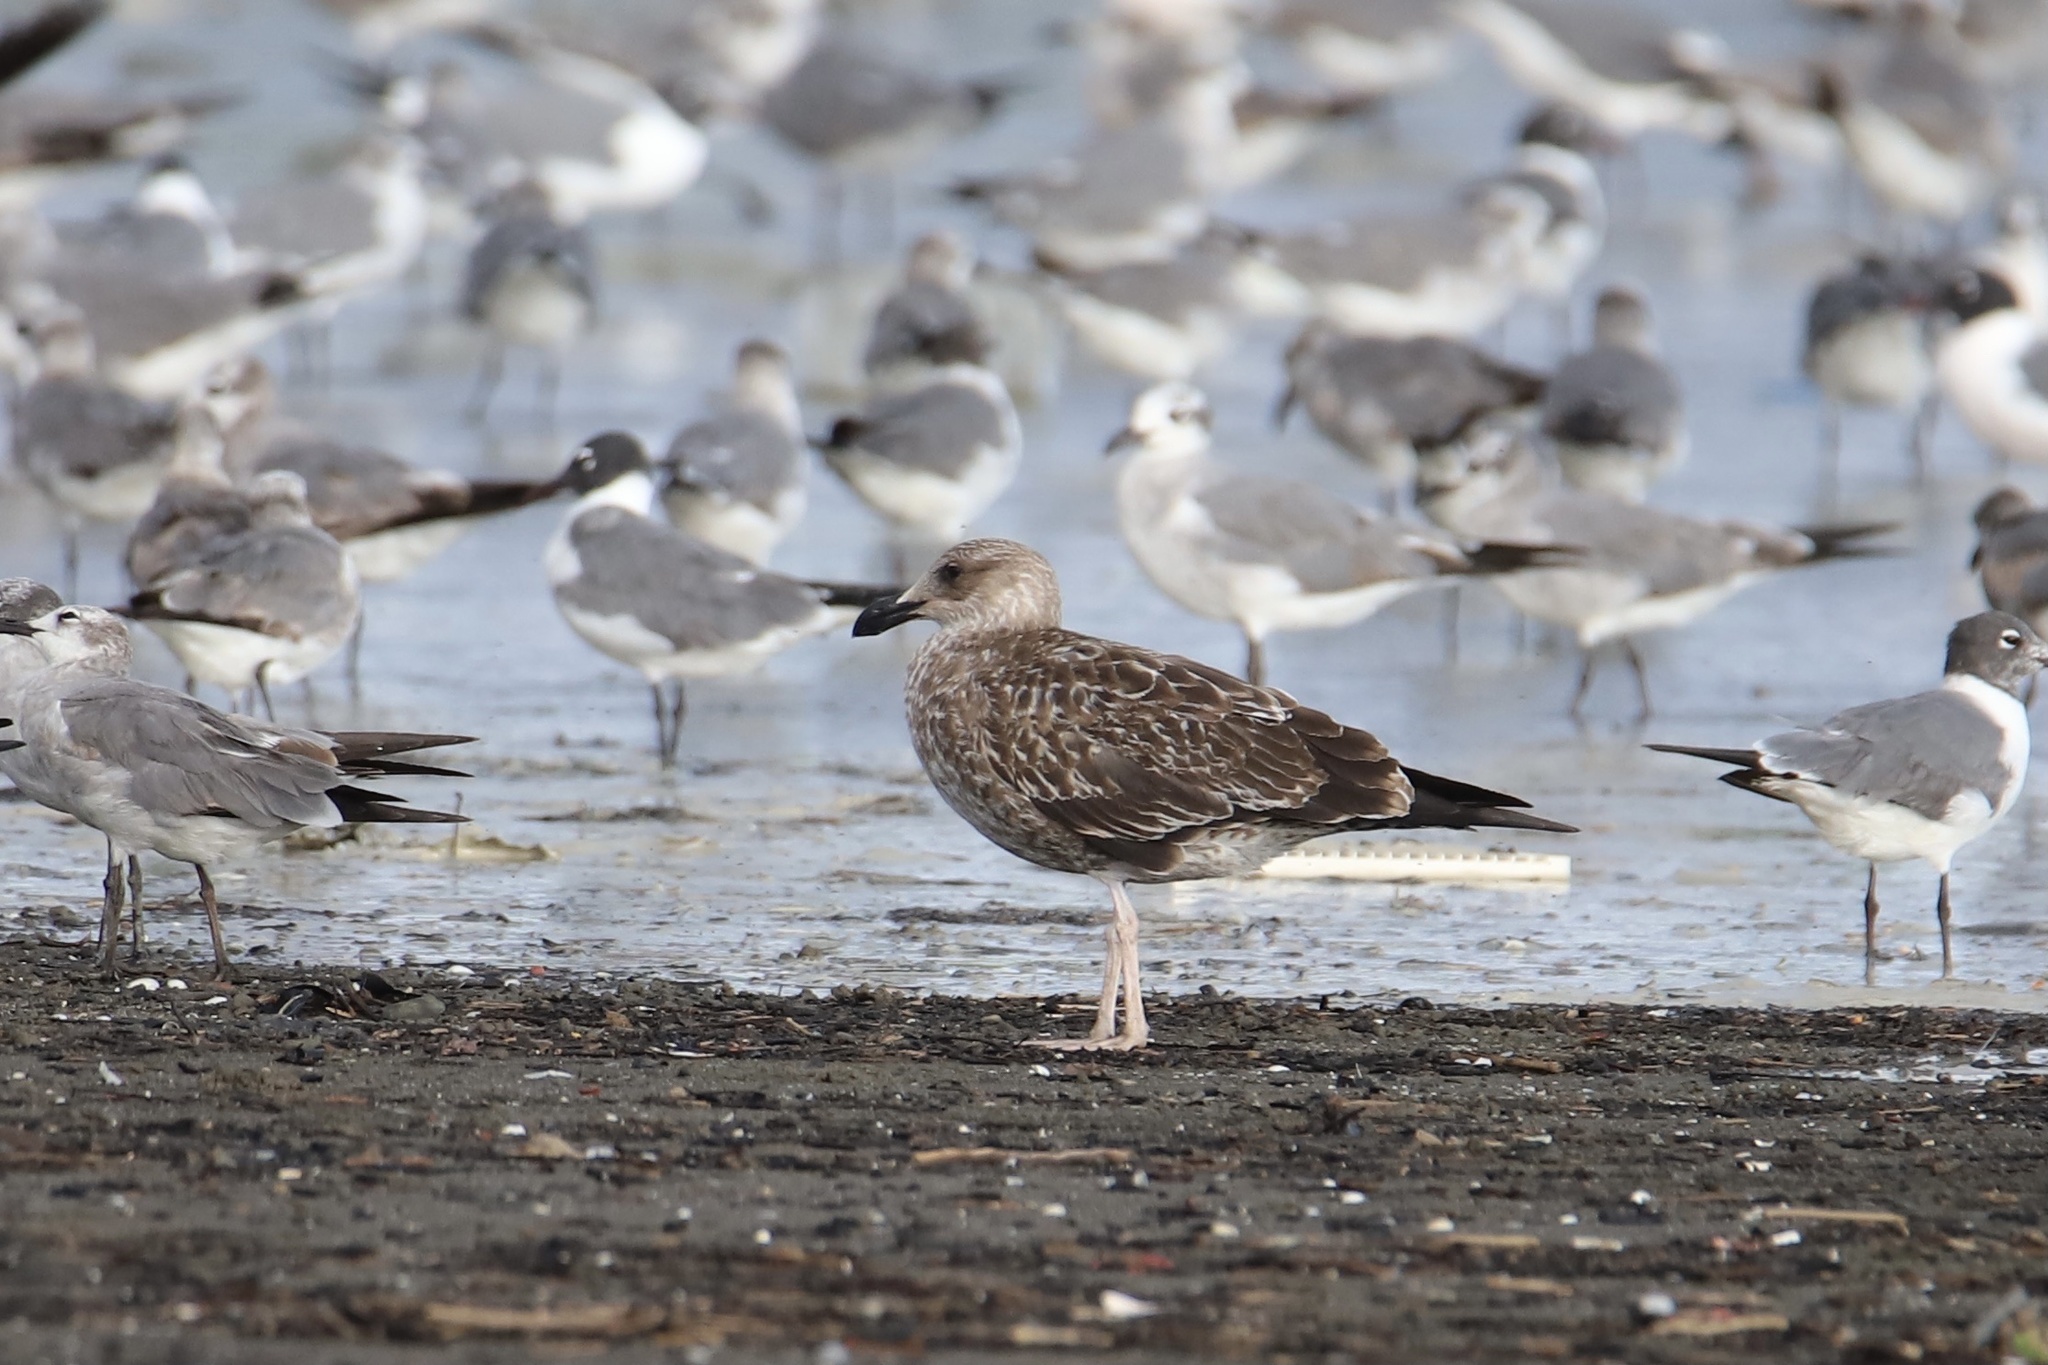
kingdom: Animalia
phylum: Chordata
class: Aves
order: Charadriiformes
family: Laridae
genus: Larus
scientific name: Larus fuscus
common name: Lesser black-backed gull
